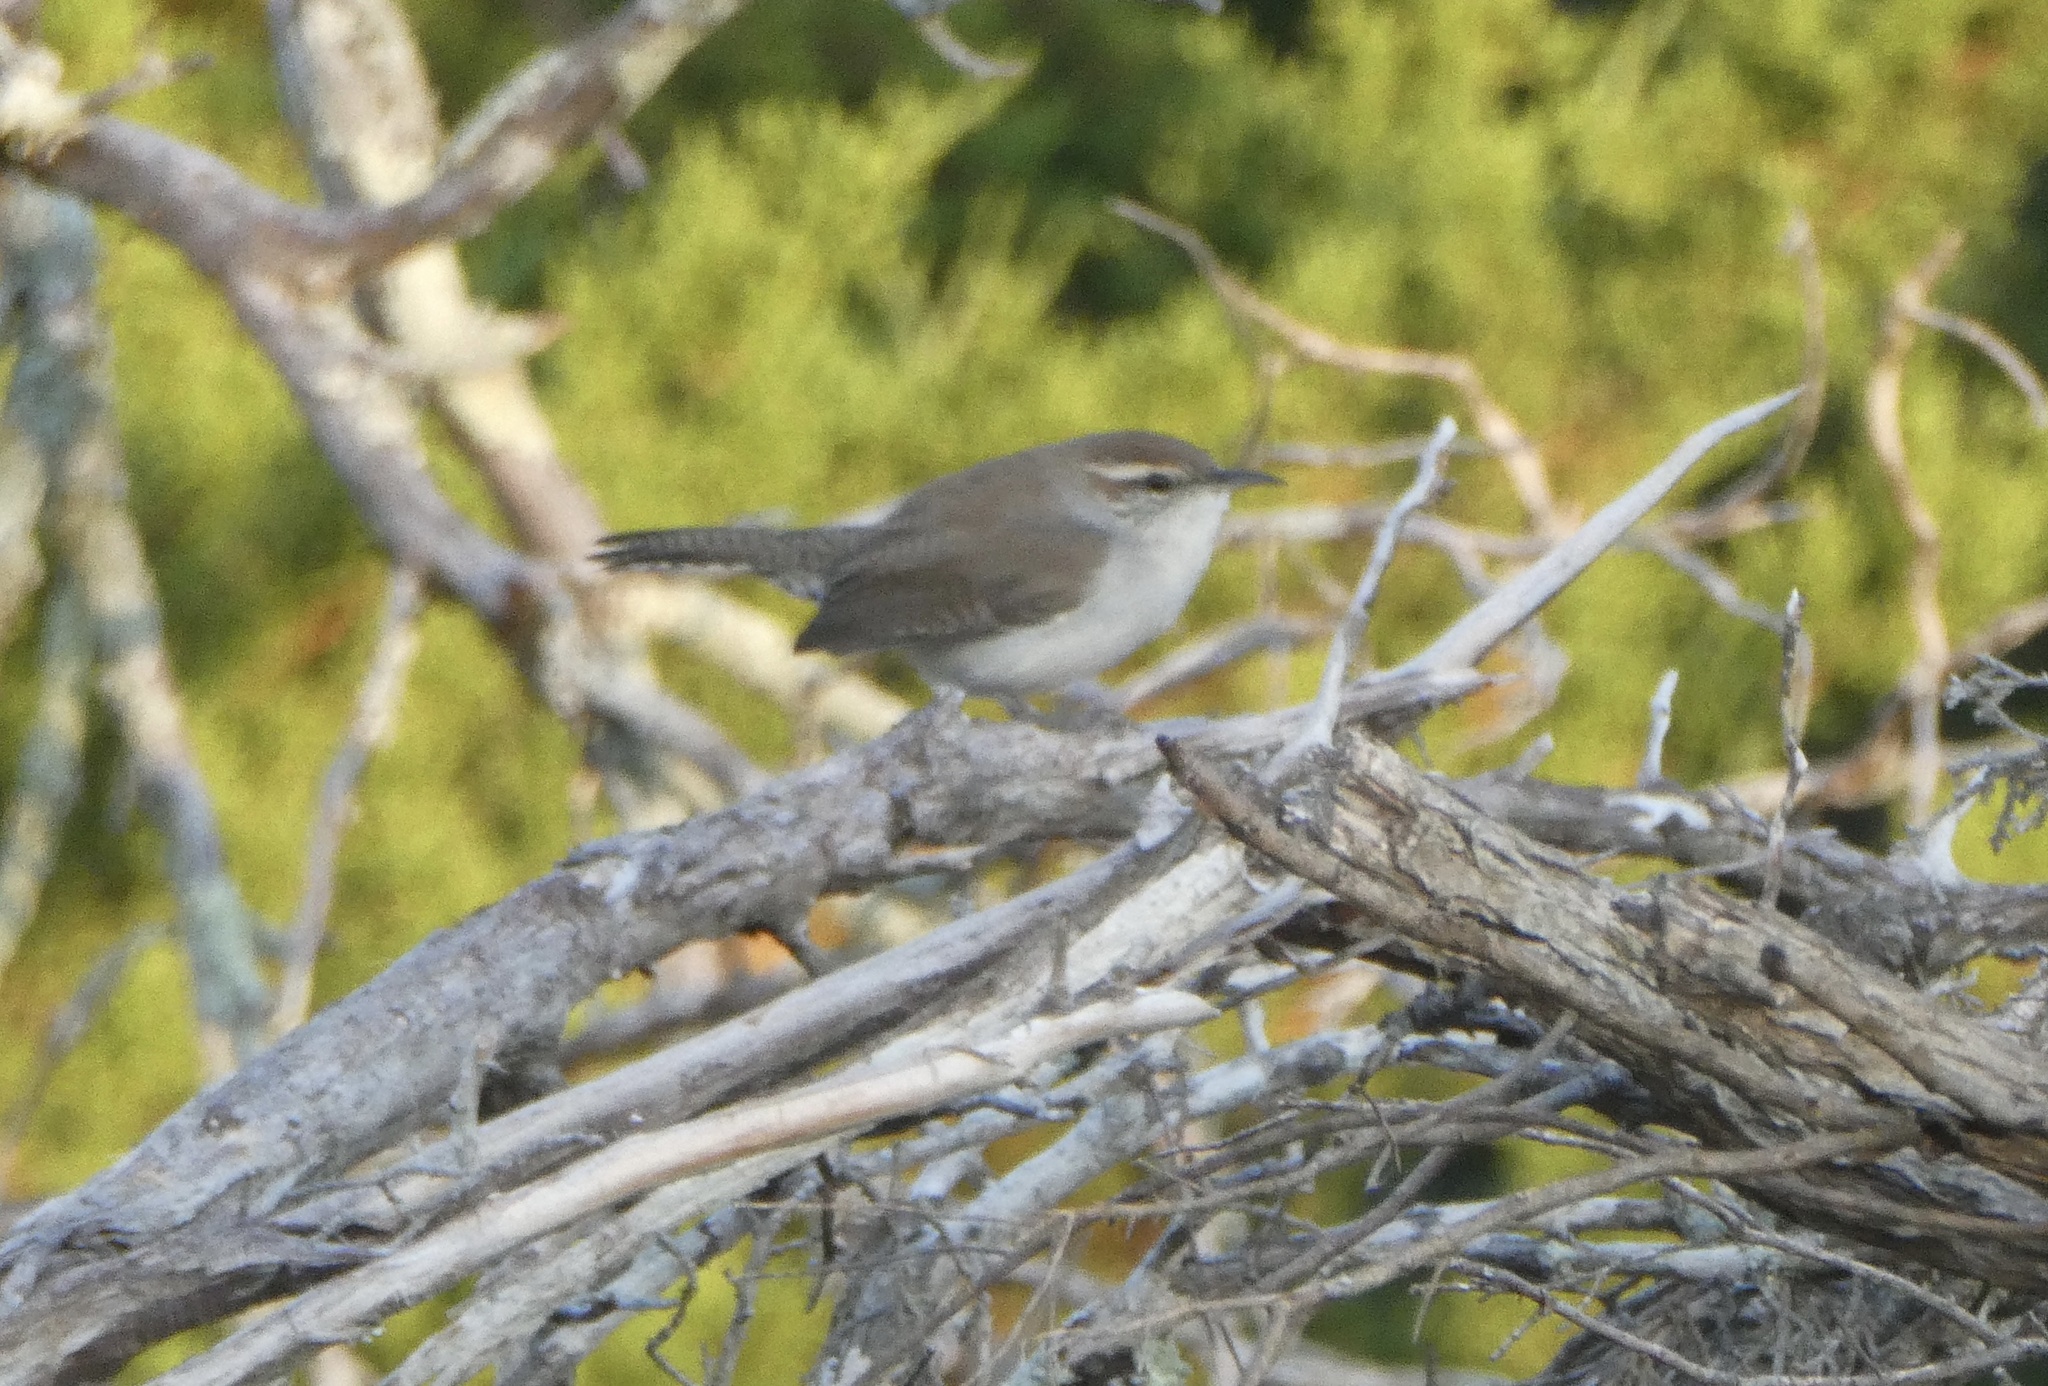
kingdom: Animalia
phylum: Chordata
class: Aves
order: Passeriformes
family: Troglodytidae
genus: Thryomanes
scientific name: Thryomanes bewickii
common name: Bewick's wren
